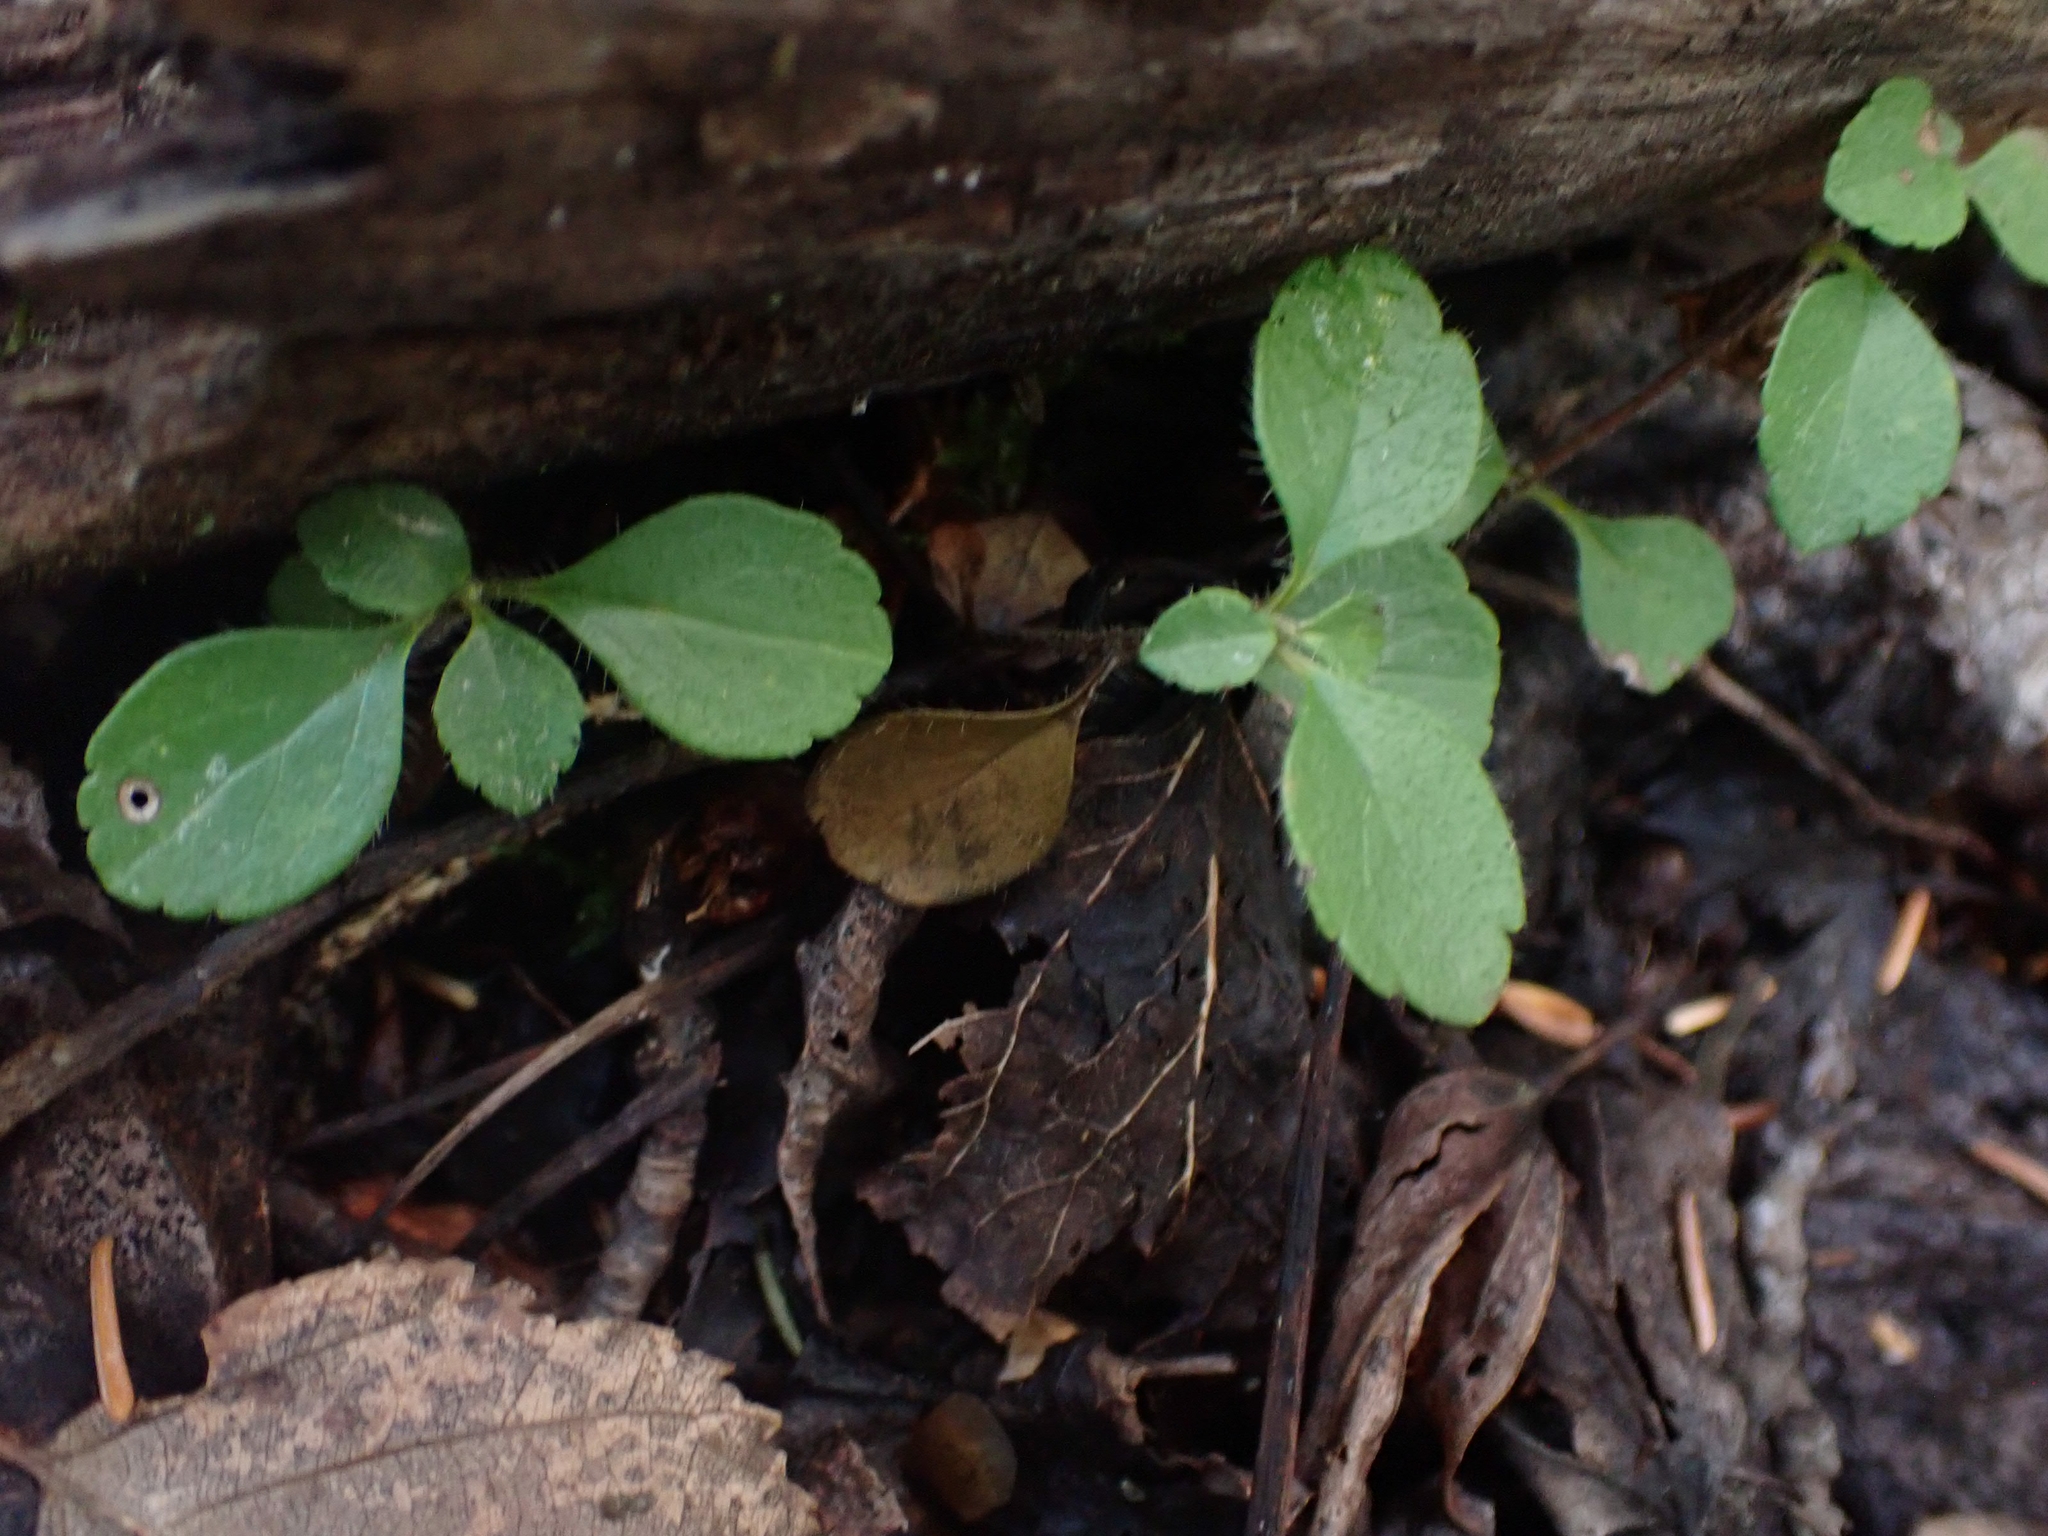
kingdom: Plantae
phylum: Tracheophyta
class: Magnoliopsida
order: Dipsacales
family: Caprifoliaceae
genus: Linnaea
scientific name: Linnaea borealis
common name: Twinflower
